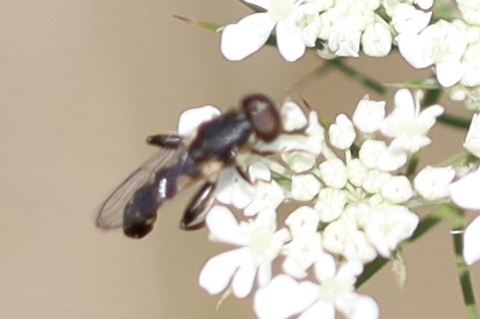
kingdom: Animalia
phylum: Arthropoda
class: Insecta
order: Diptera
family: Syrphidae
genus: Syritta
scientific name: Syritta pipiens
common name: Hover fly
